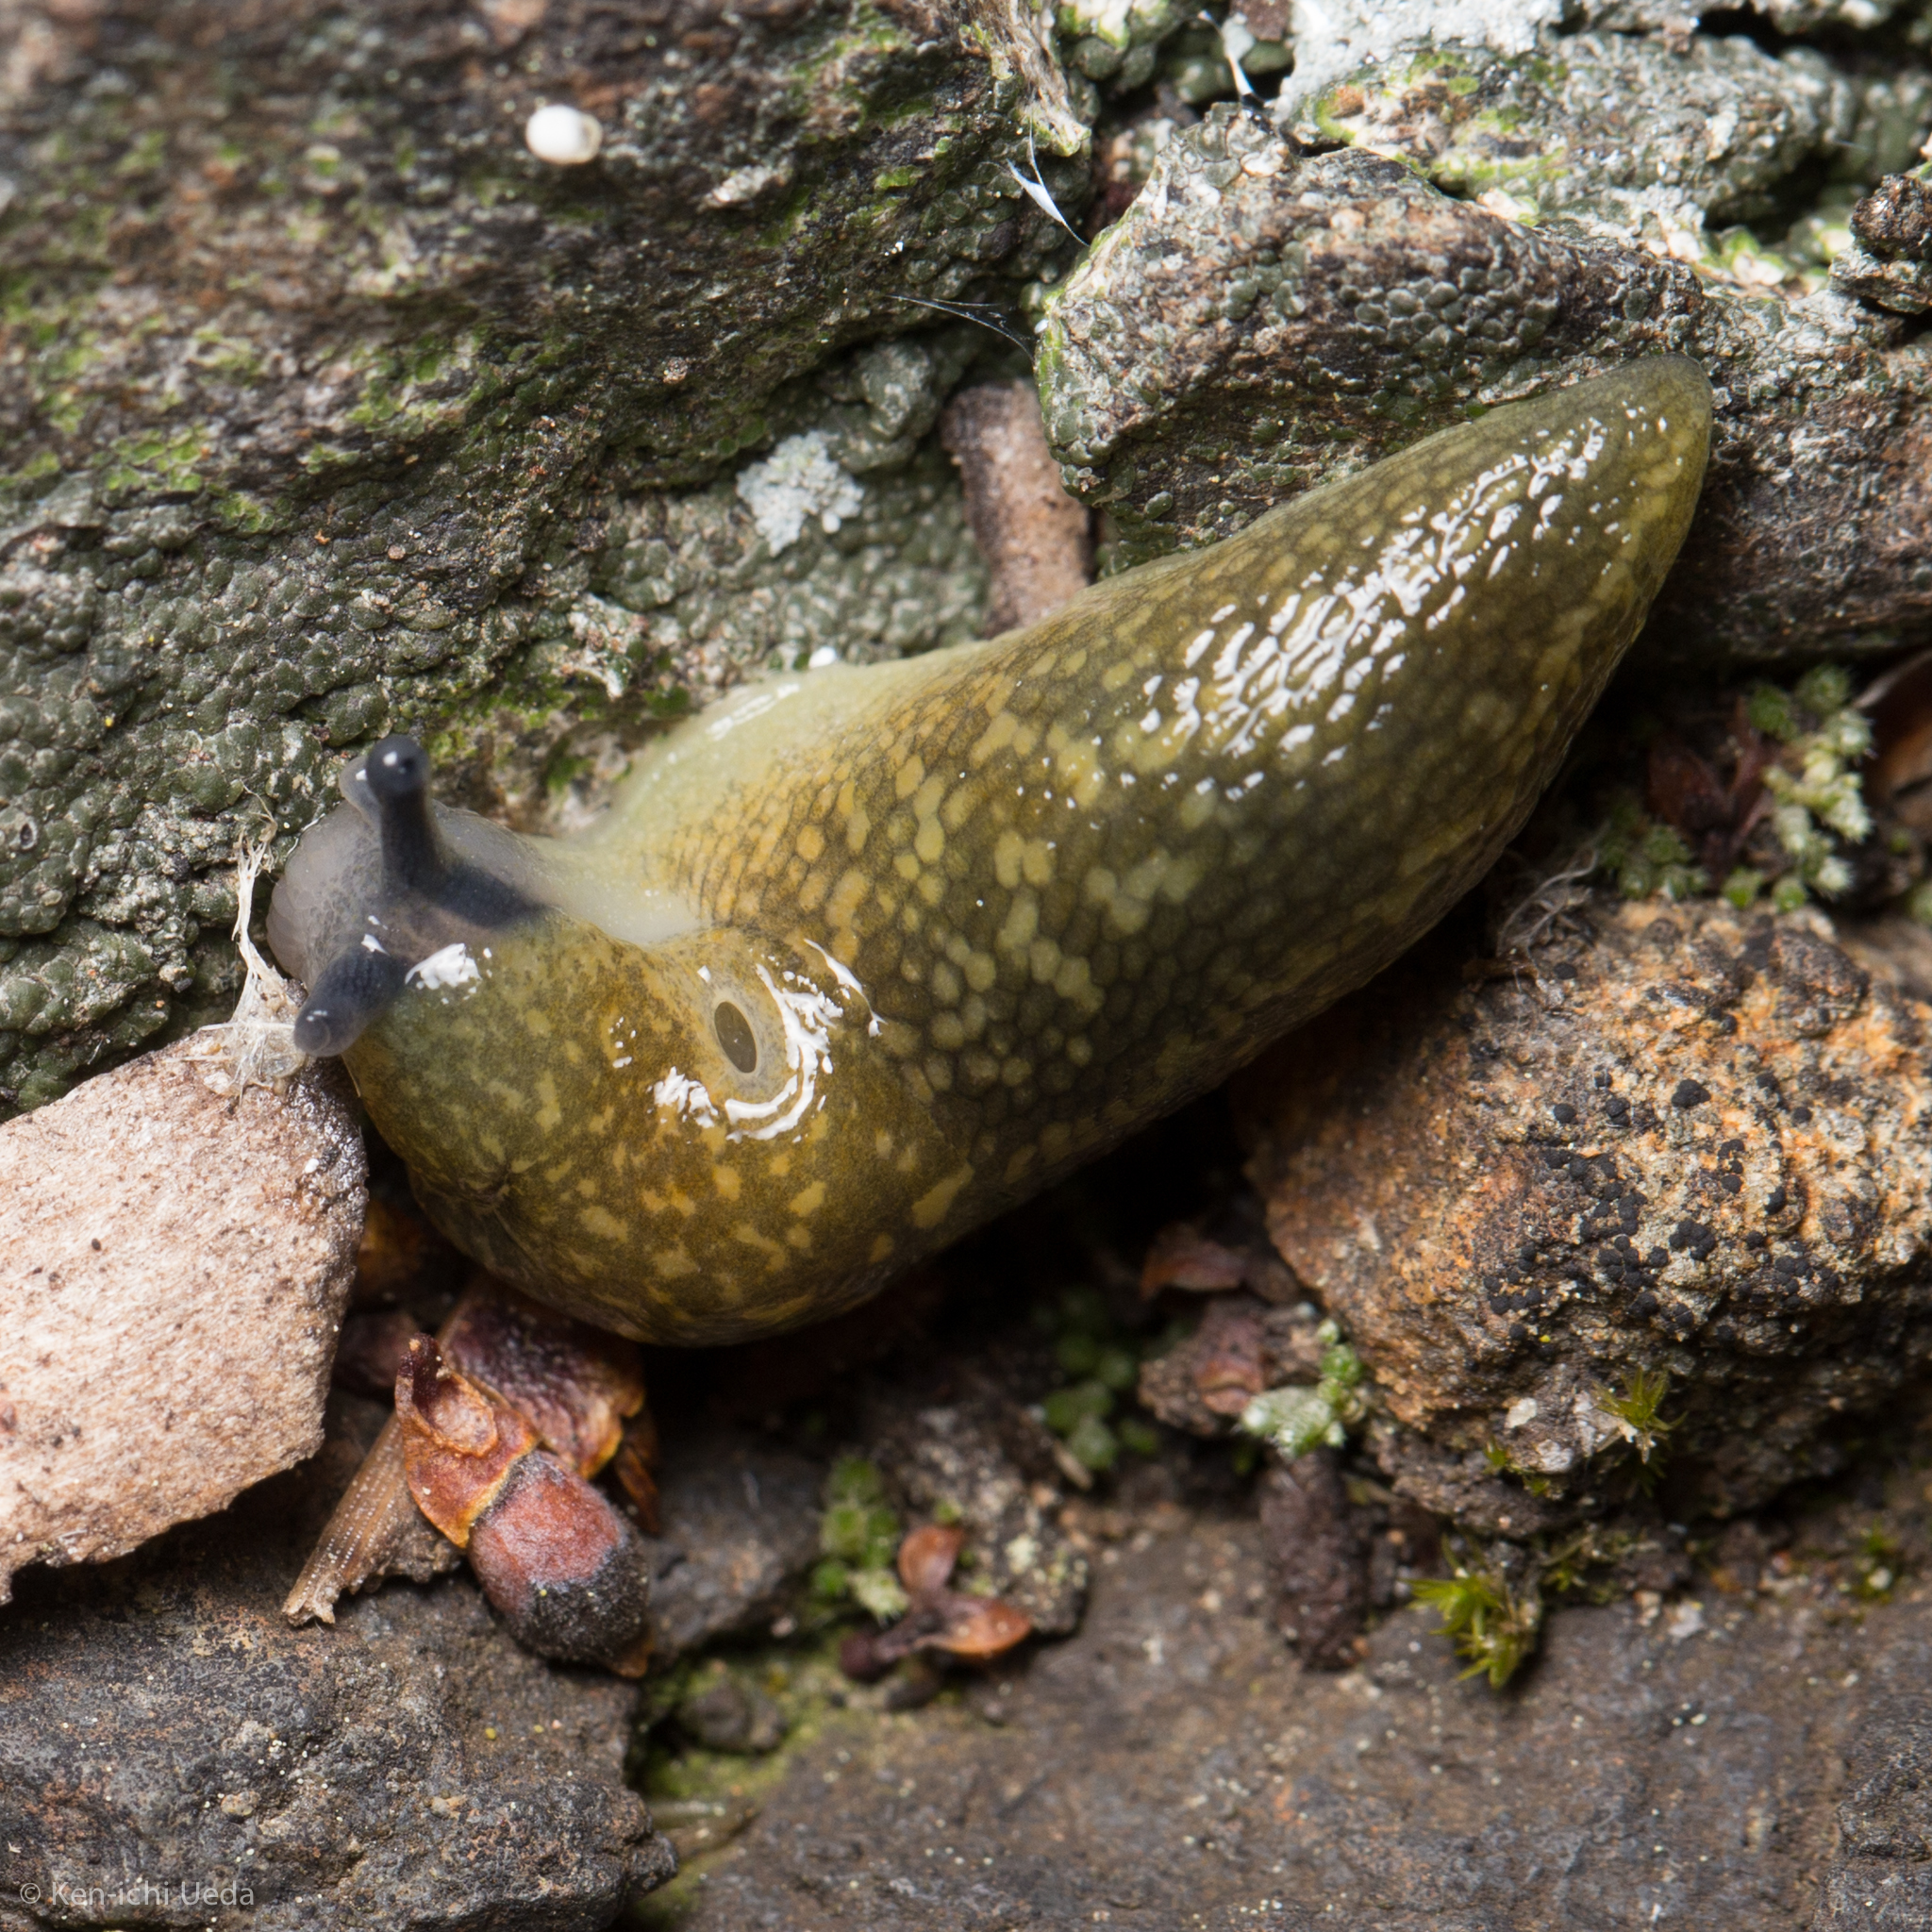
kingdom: Animalia
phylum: Mollusca
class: Gastropoda
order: Stylommatophora
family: Limacidae
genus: Limacus
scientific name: Limacus flavus
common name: Yellow gardenslug
